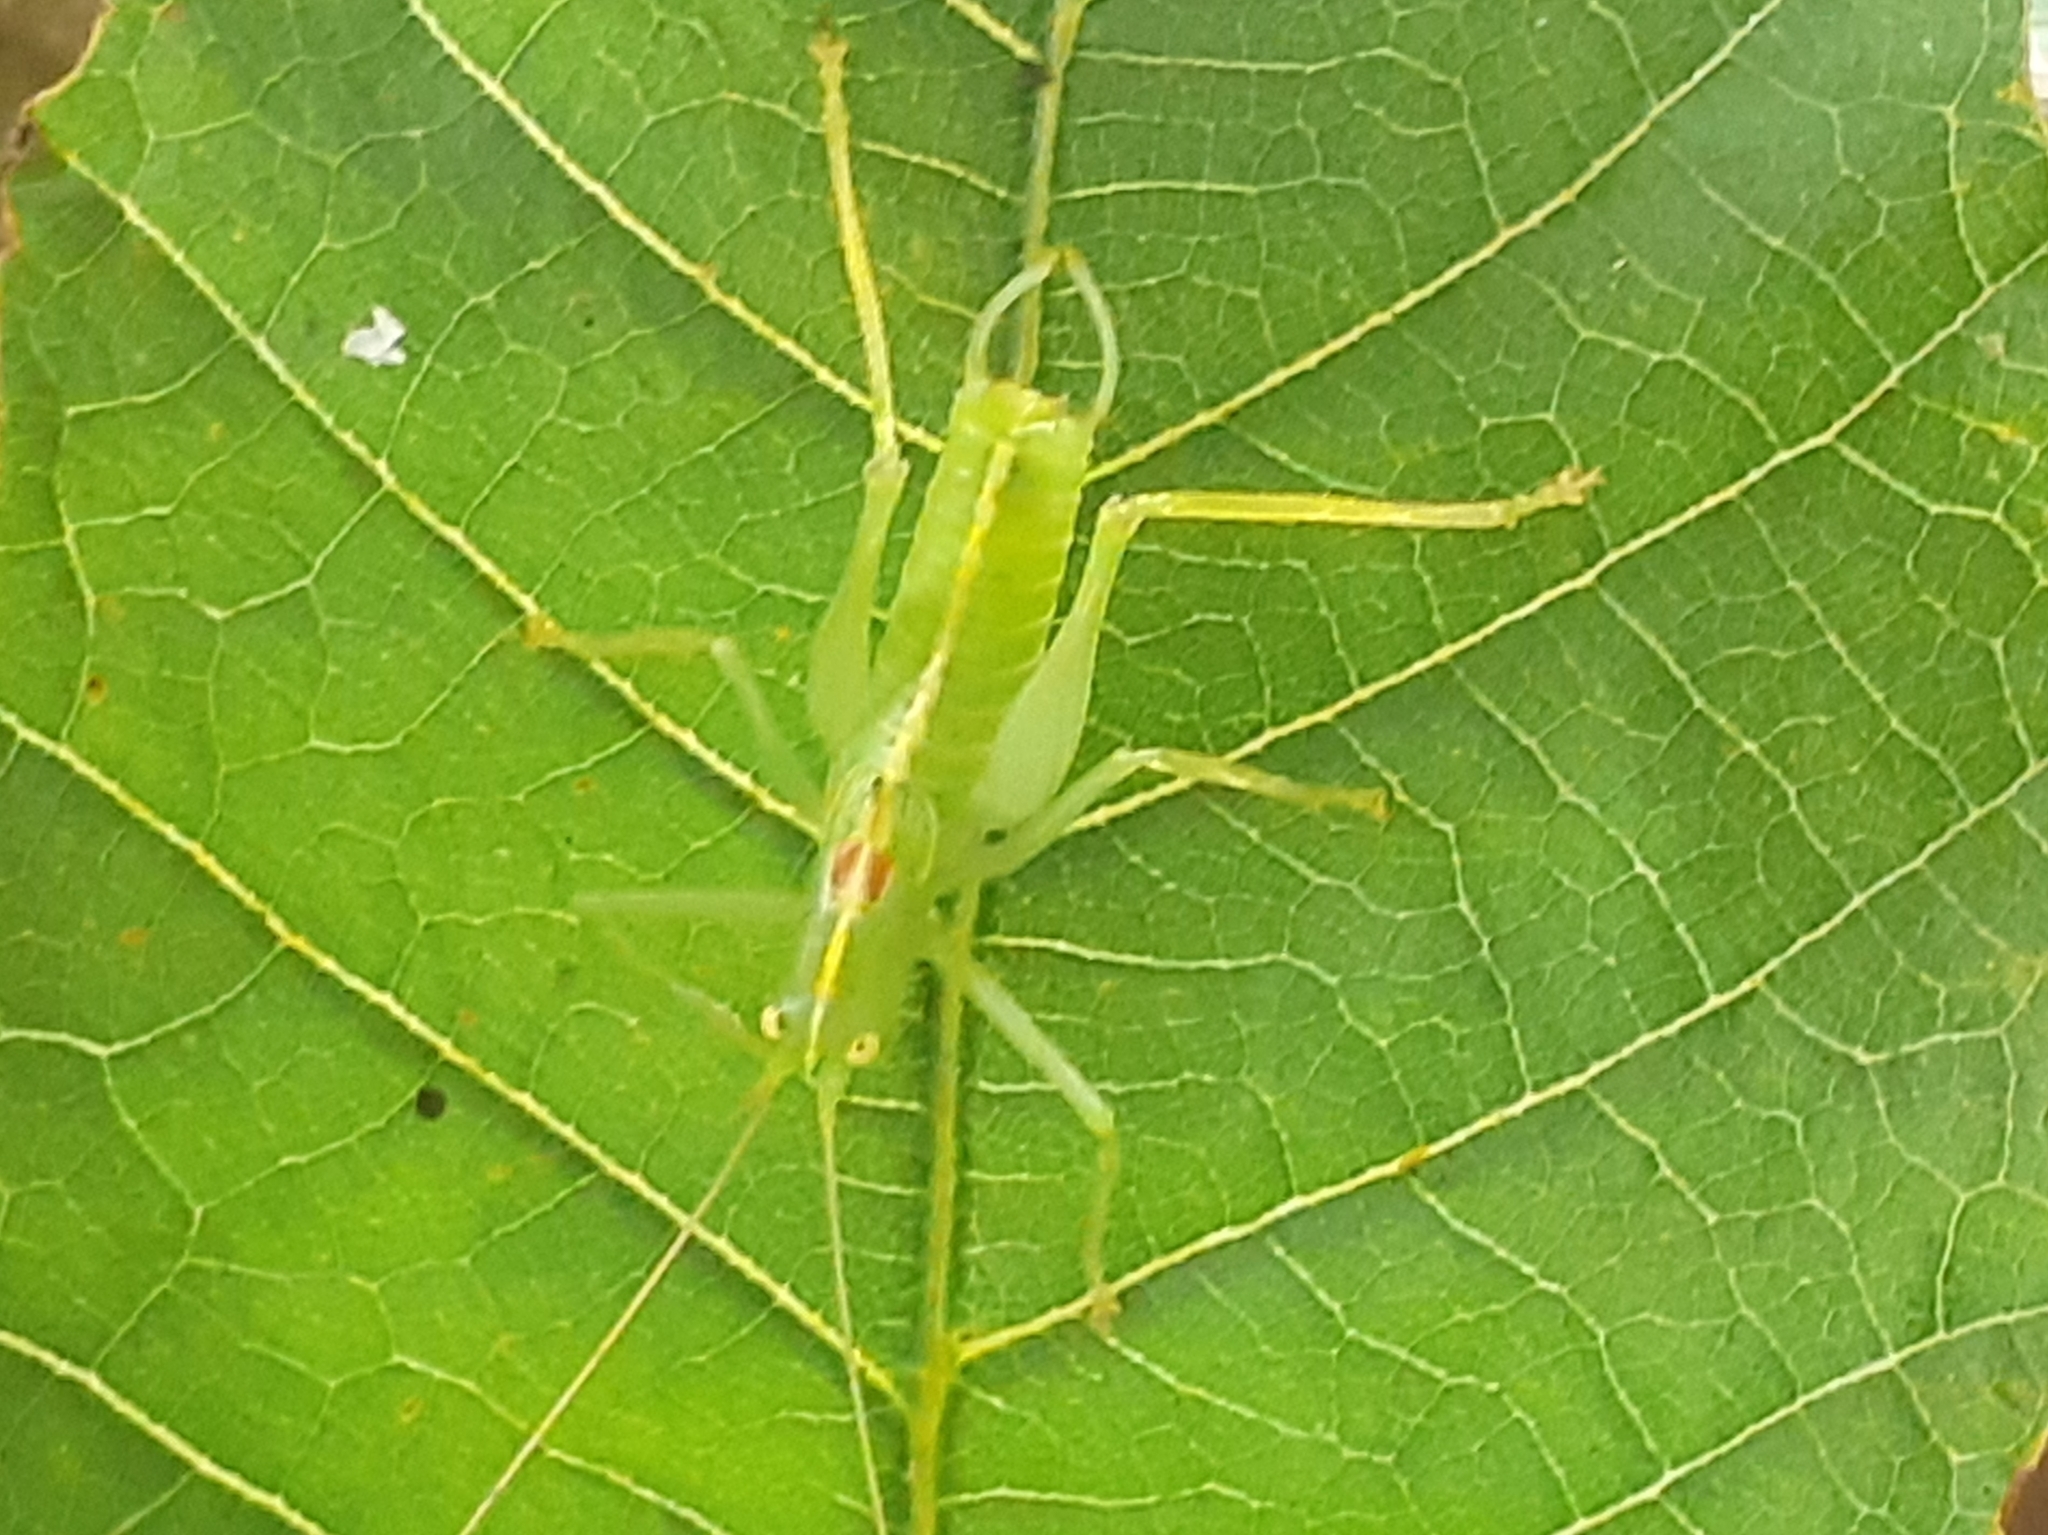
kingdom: Animalia
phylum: Arthropoda
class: Insecta
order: Orthoptera
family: Tettigoniidae
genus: Meconema
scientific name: Meconema meridionale
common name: Southern oak bush-cricket
